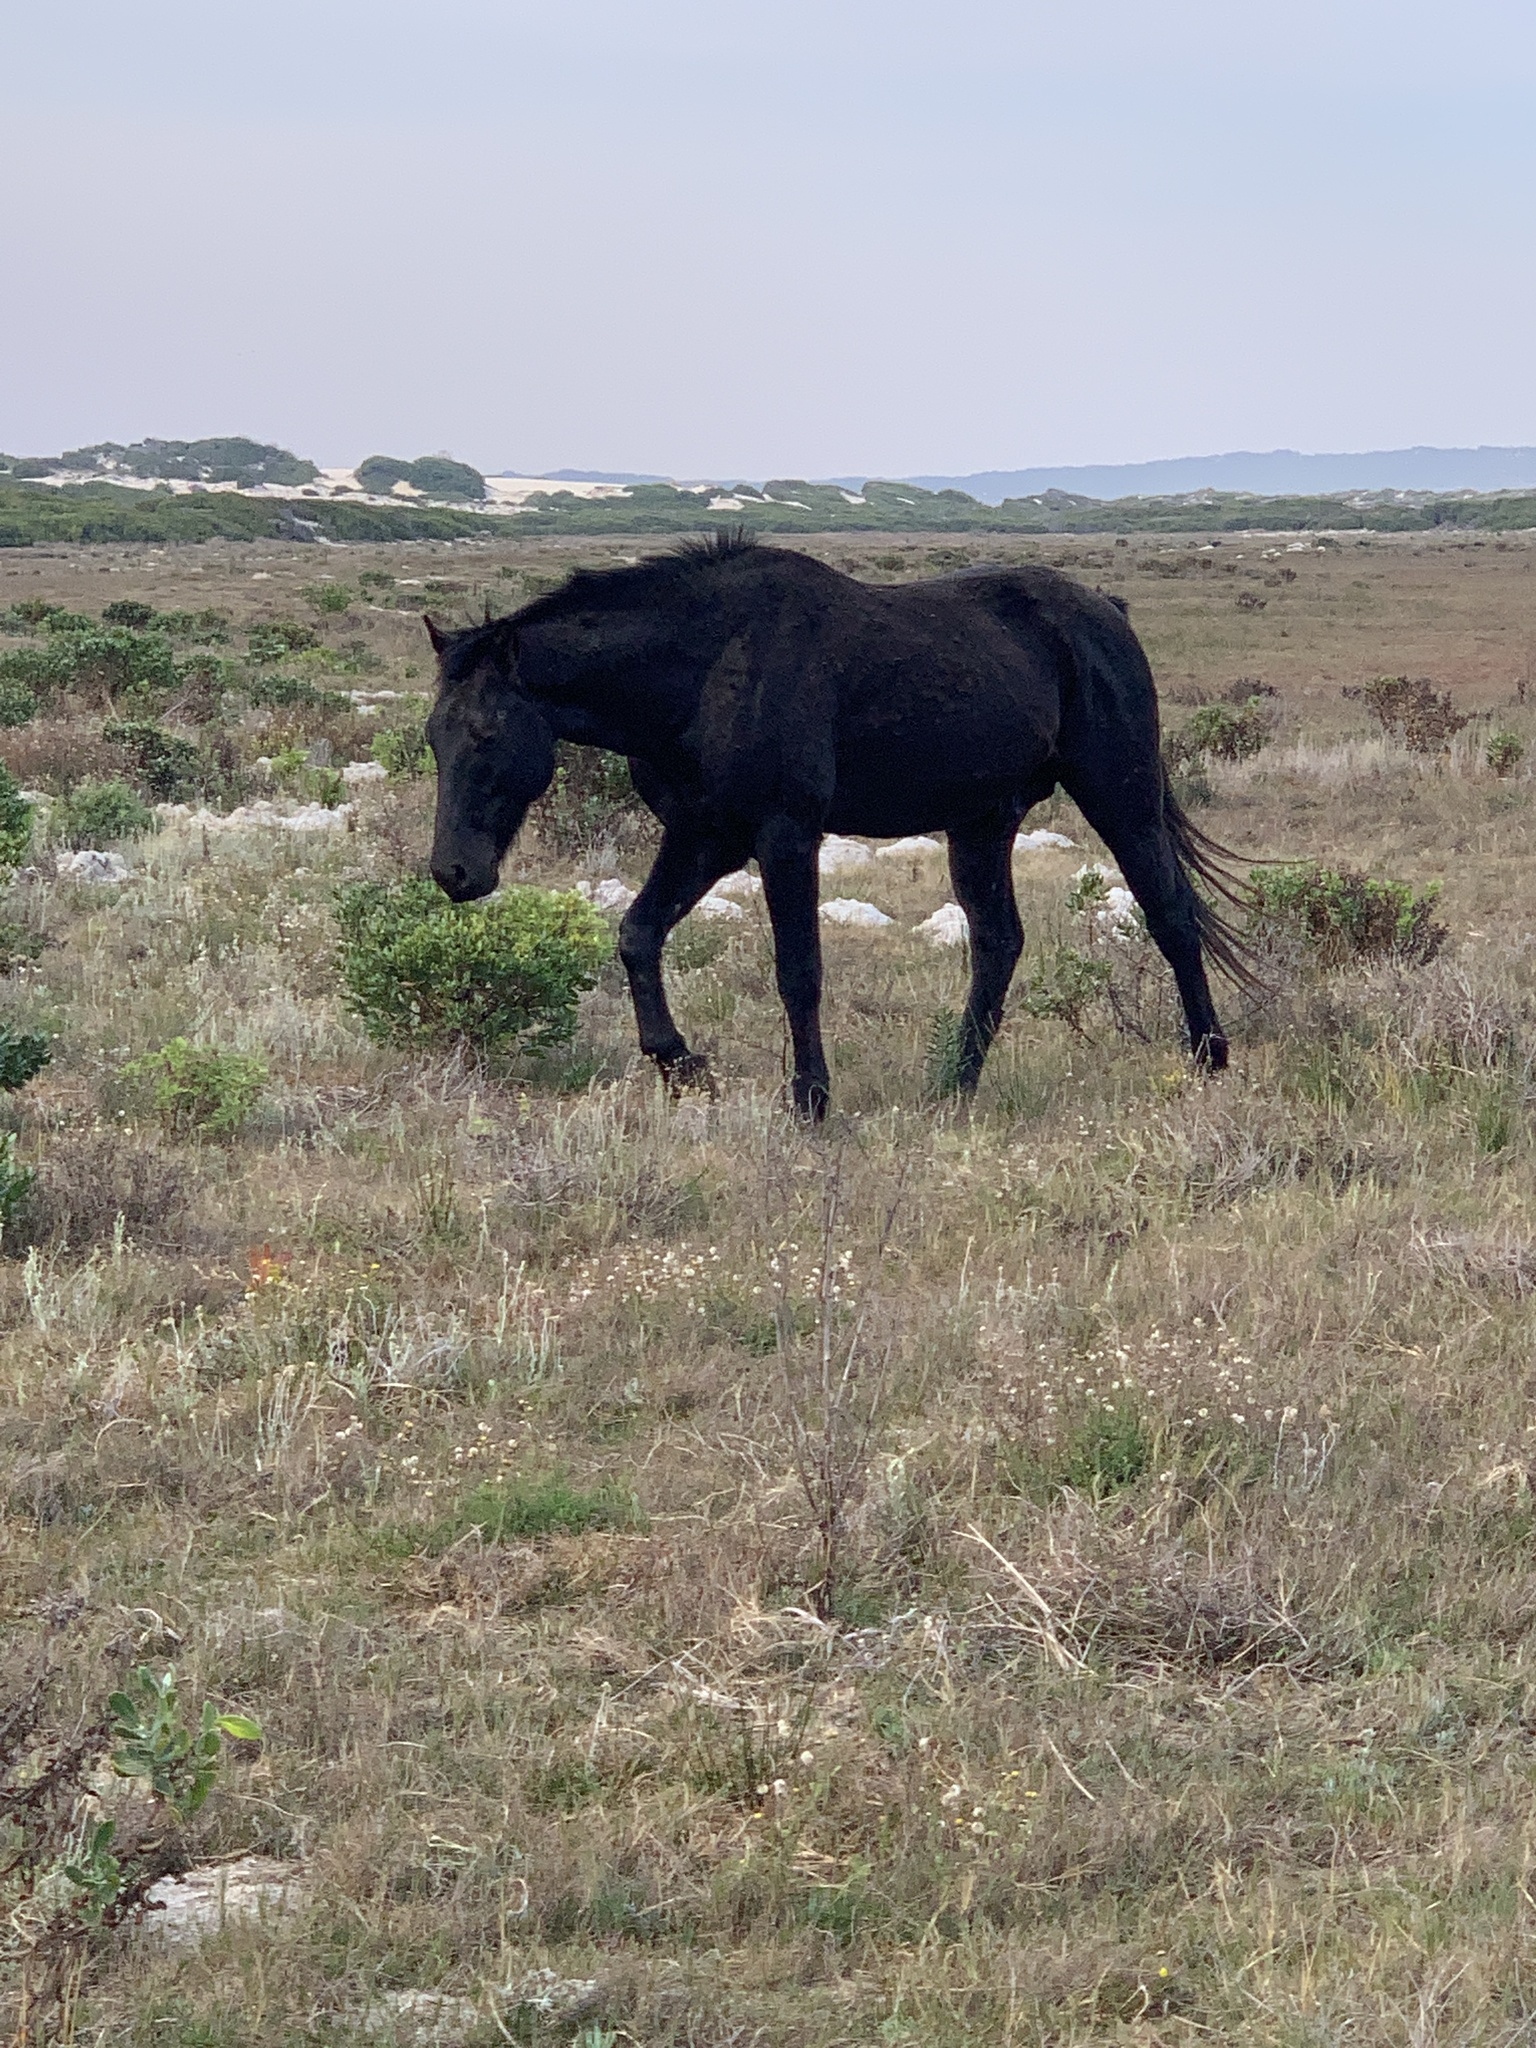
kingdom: Animalia
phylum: Chordata
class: Mammalia
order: Perissodactyla
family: Equidae
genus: Equus
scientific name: Equus caballus
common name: Horse
